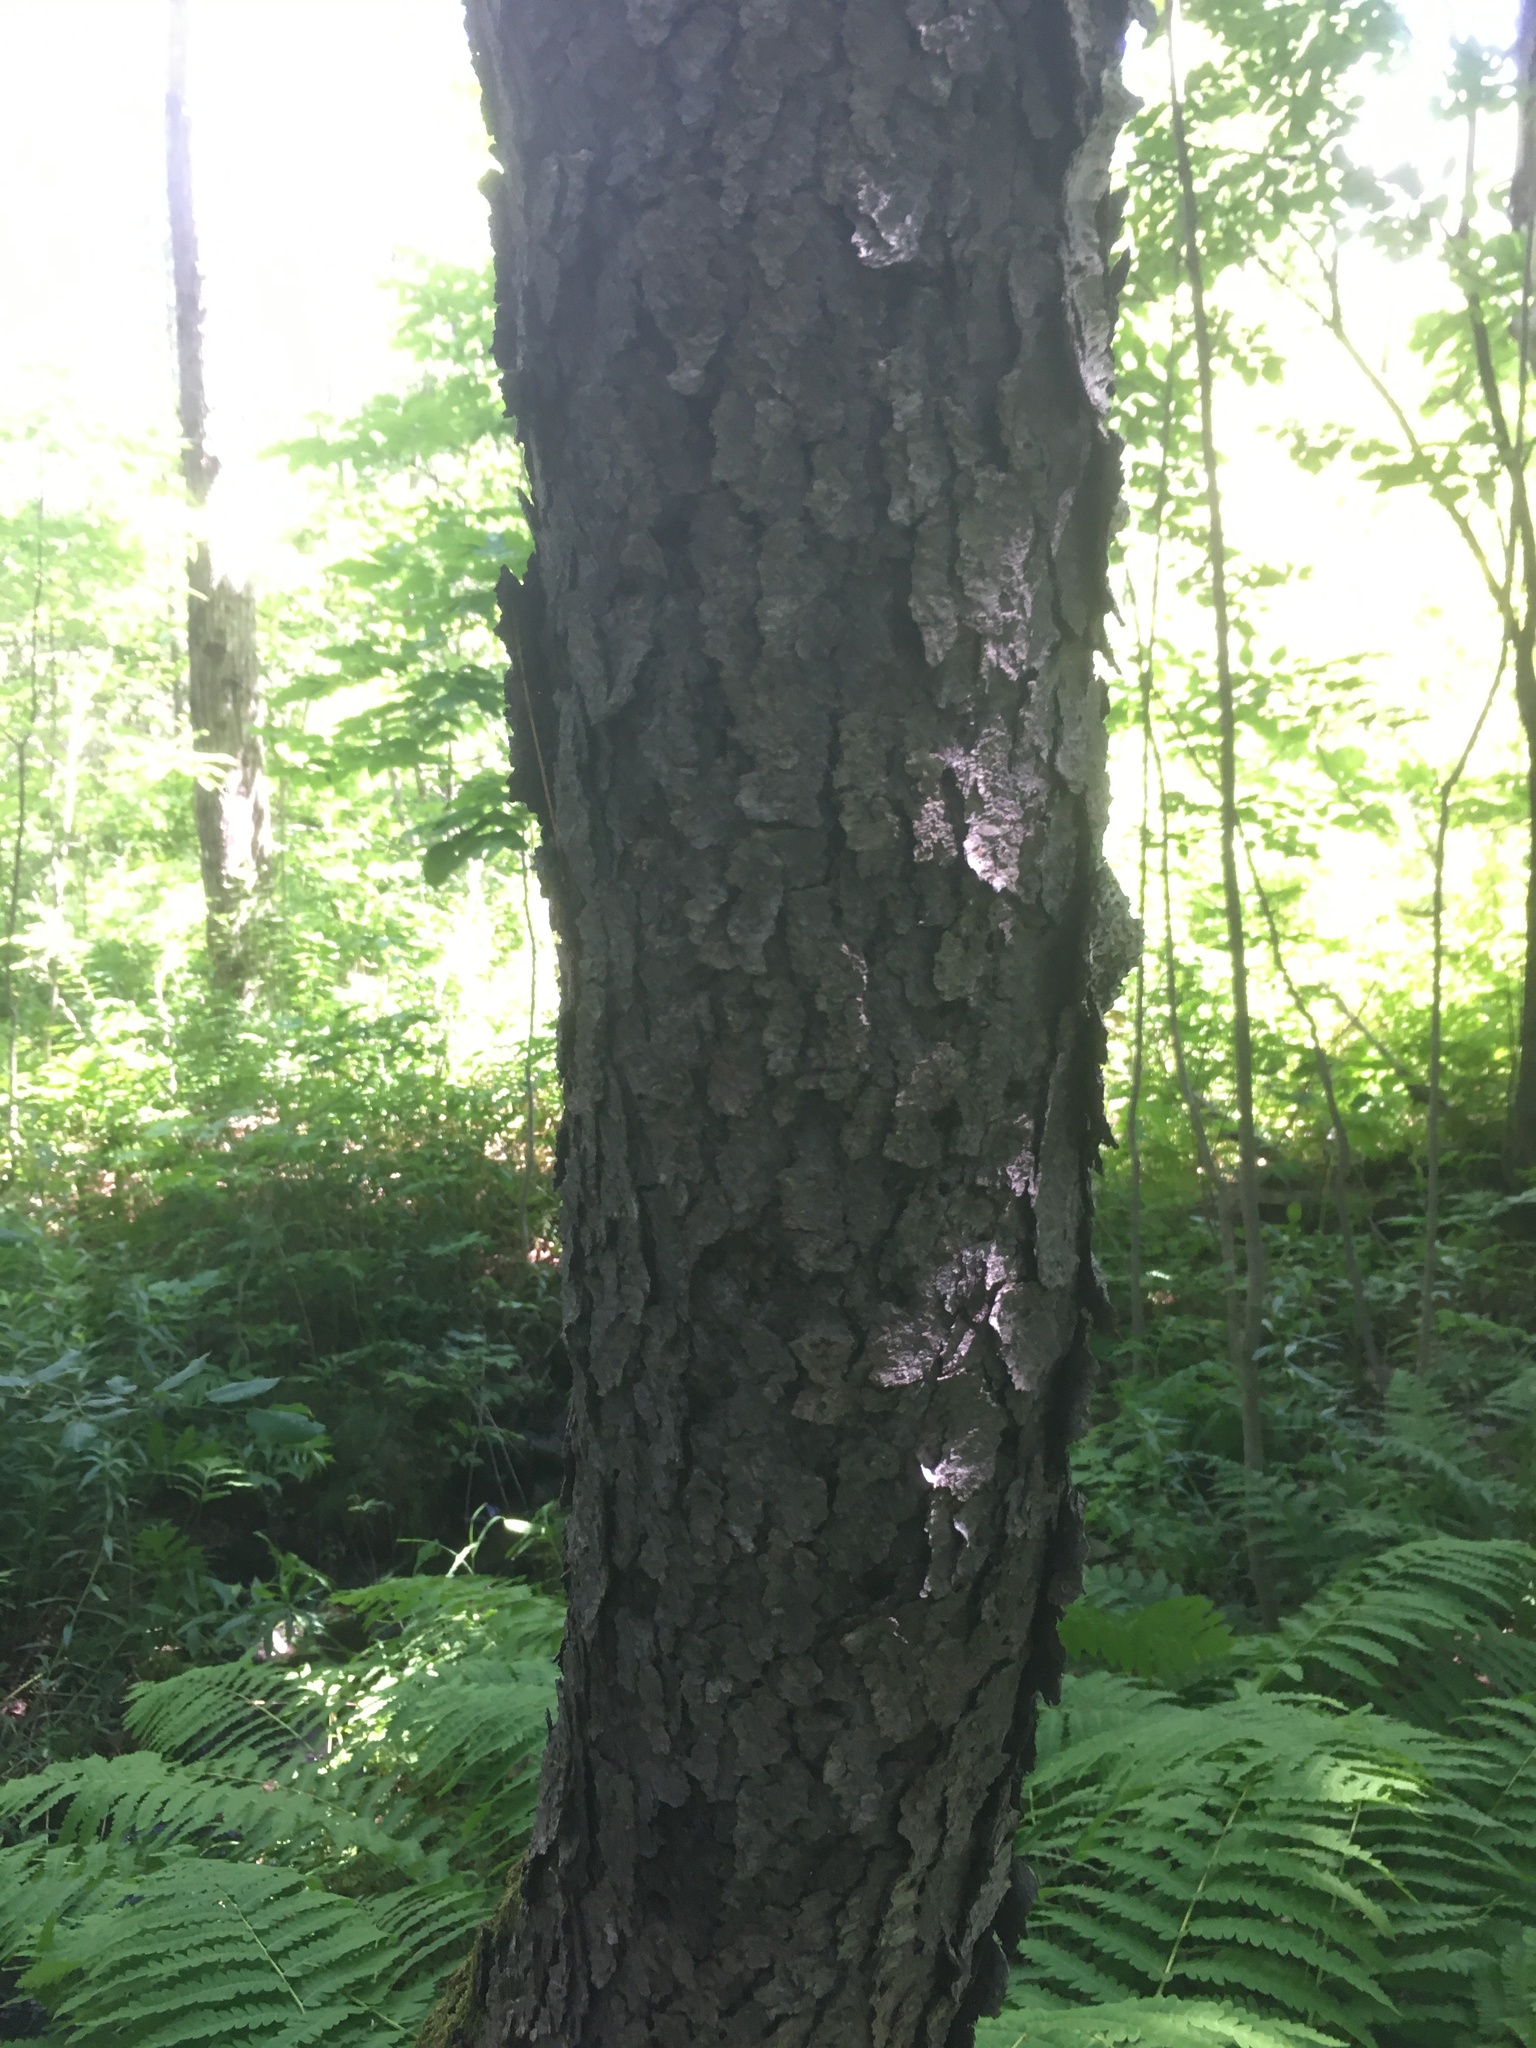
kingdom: Plantae
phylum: Tracheophyta
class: Magnoliopsida
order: Rosales
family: Rosaceae
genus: Prunus
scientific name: Prunus serotina
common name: Black cherry
